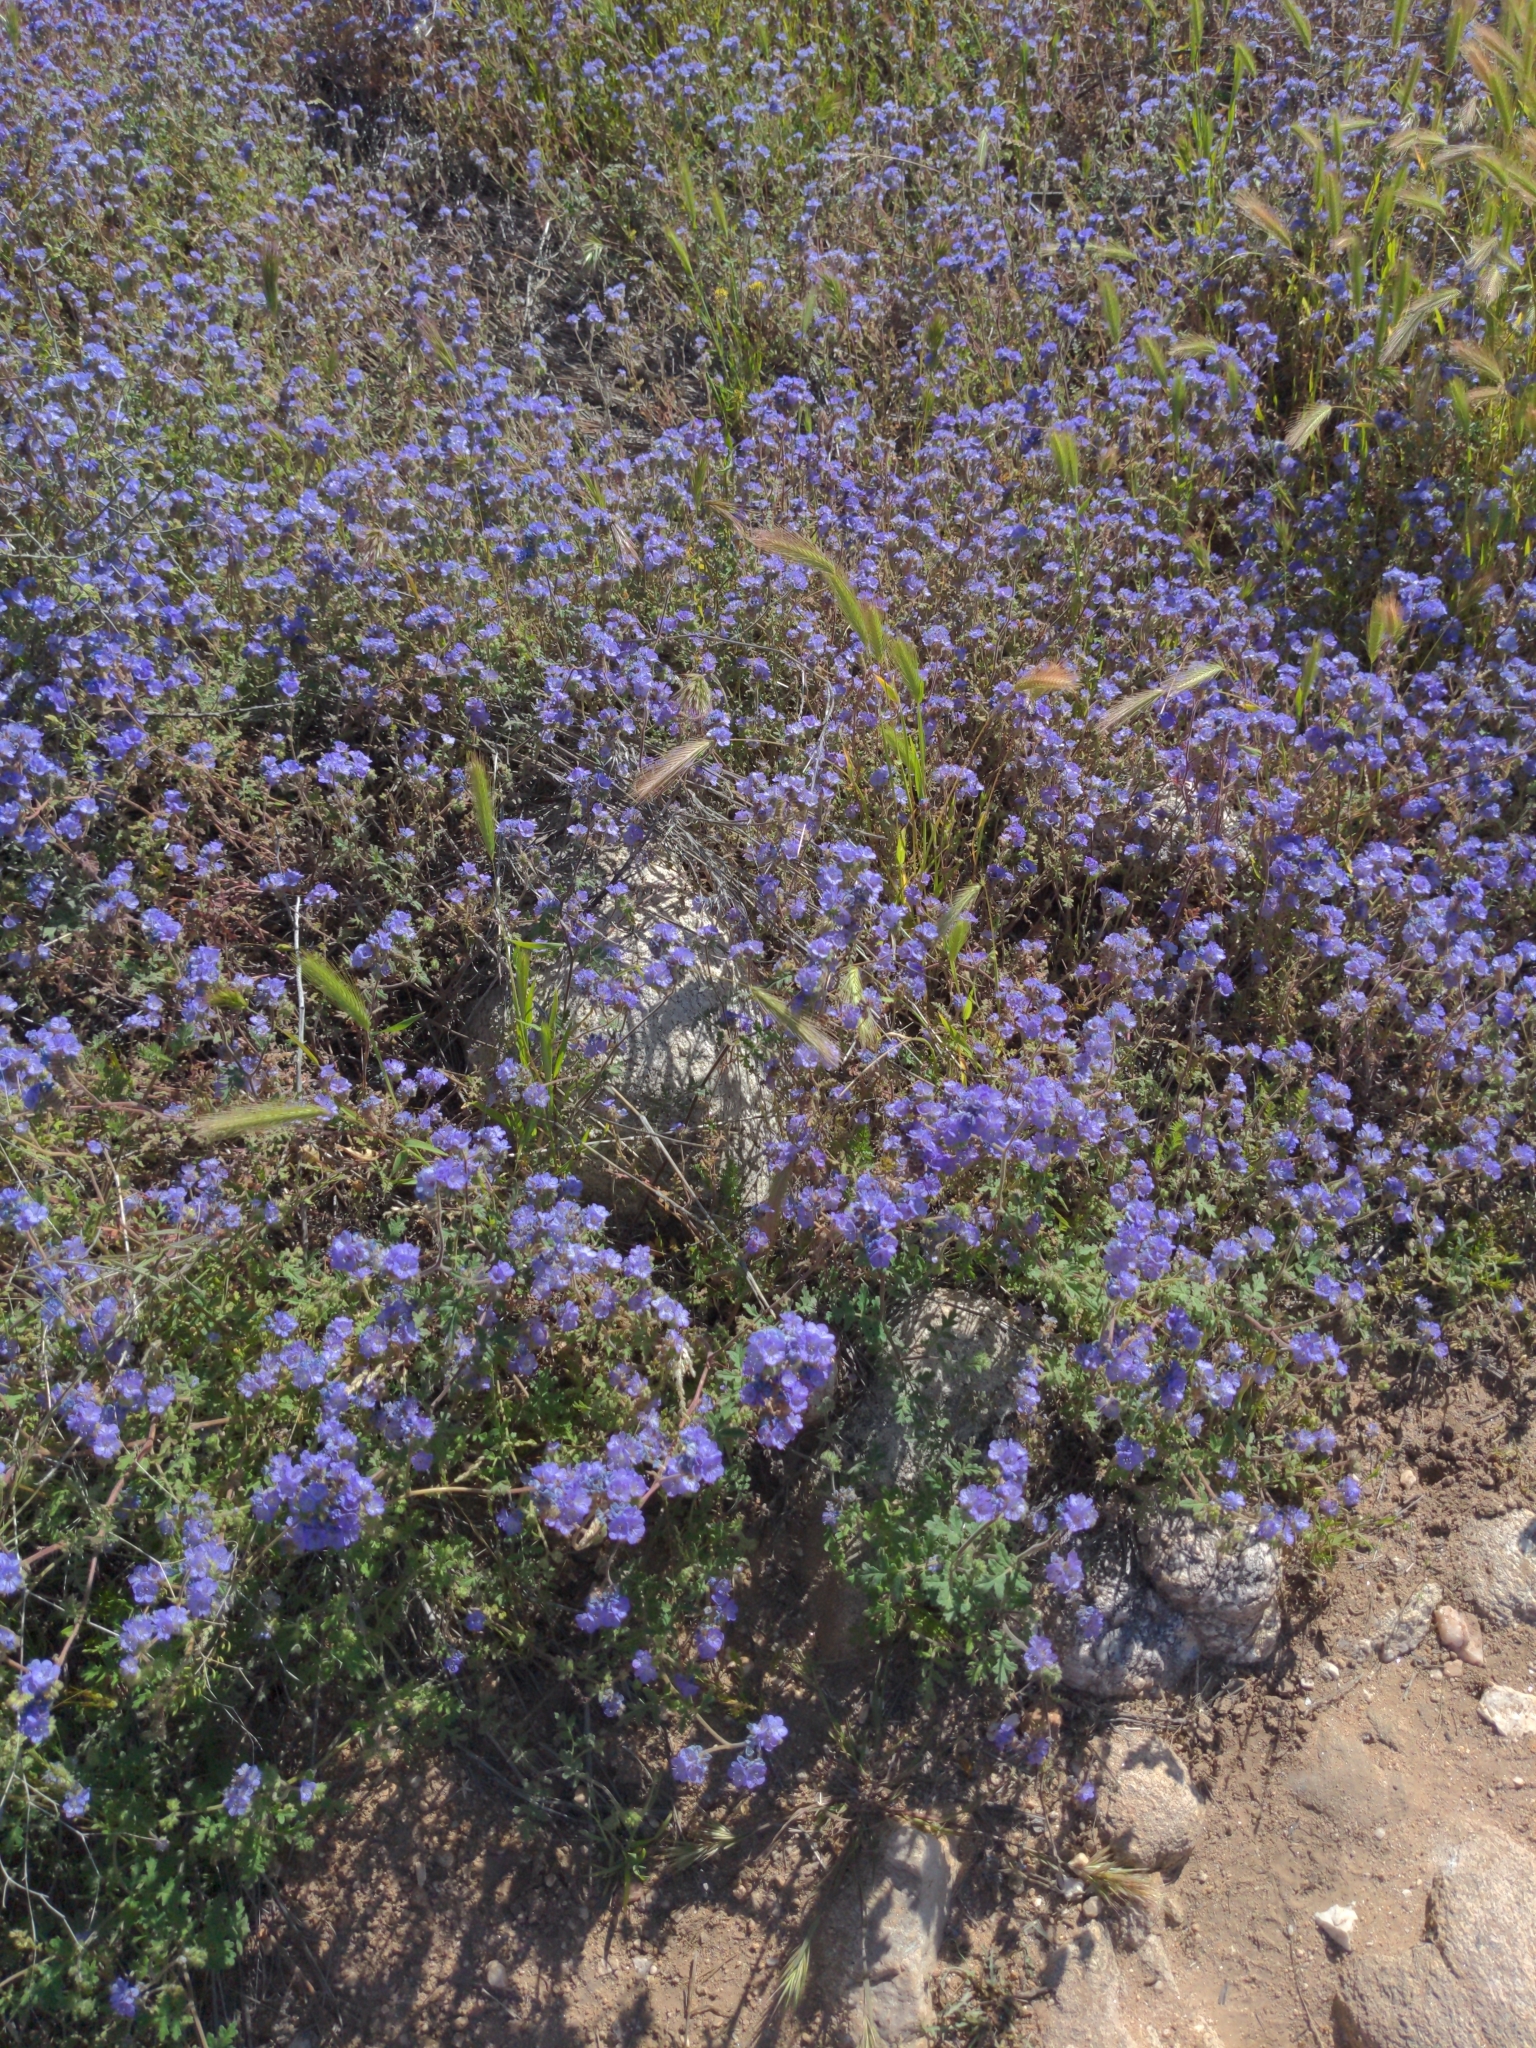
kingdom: Plantae
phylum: Tracheophyta
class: Magnoliopsida
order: Boraginales
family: Hydrophyllaceae
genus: Phacelia
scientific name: Phacelia distans
